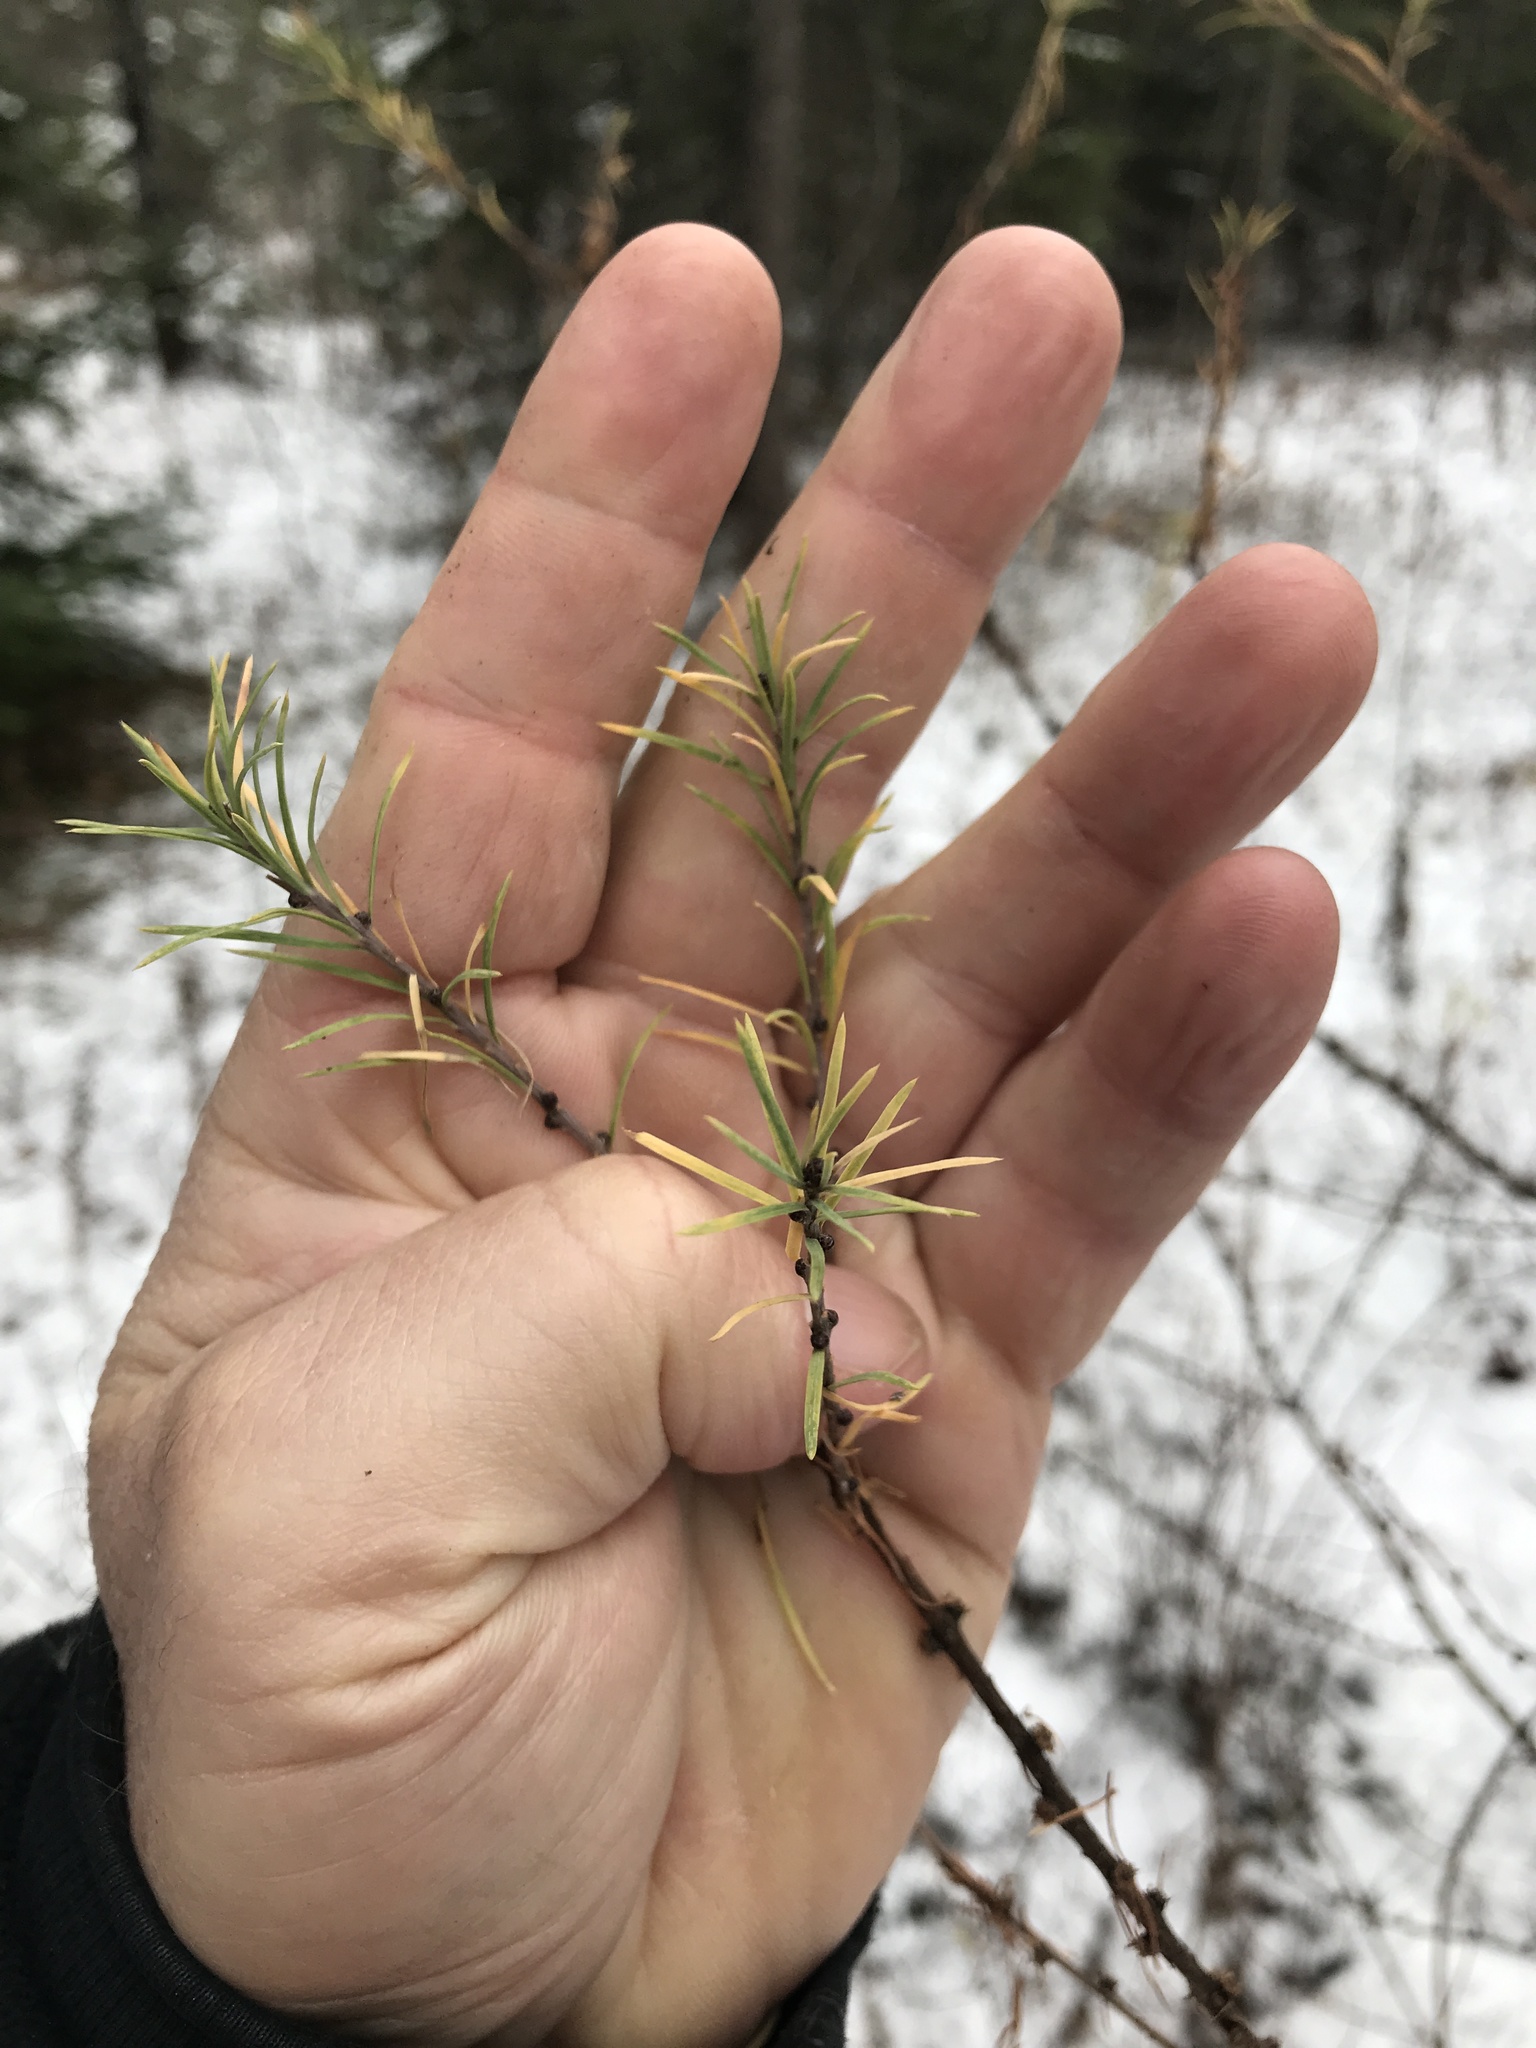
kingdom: Plantae
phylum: Tracheophyta
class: Pinopsida
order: Pinales
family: Pinaceae
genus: Larix
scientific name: Larix laricina
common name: American larch
